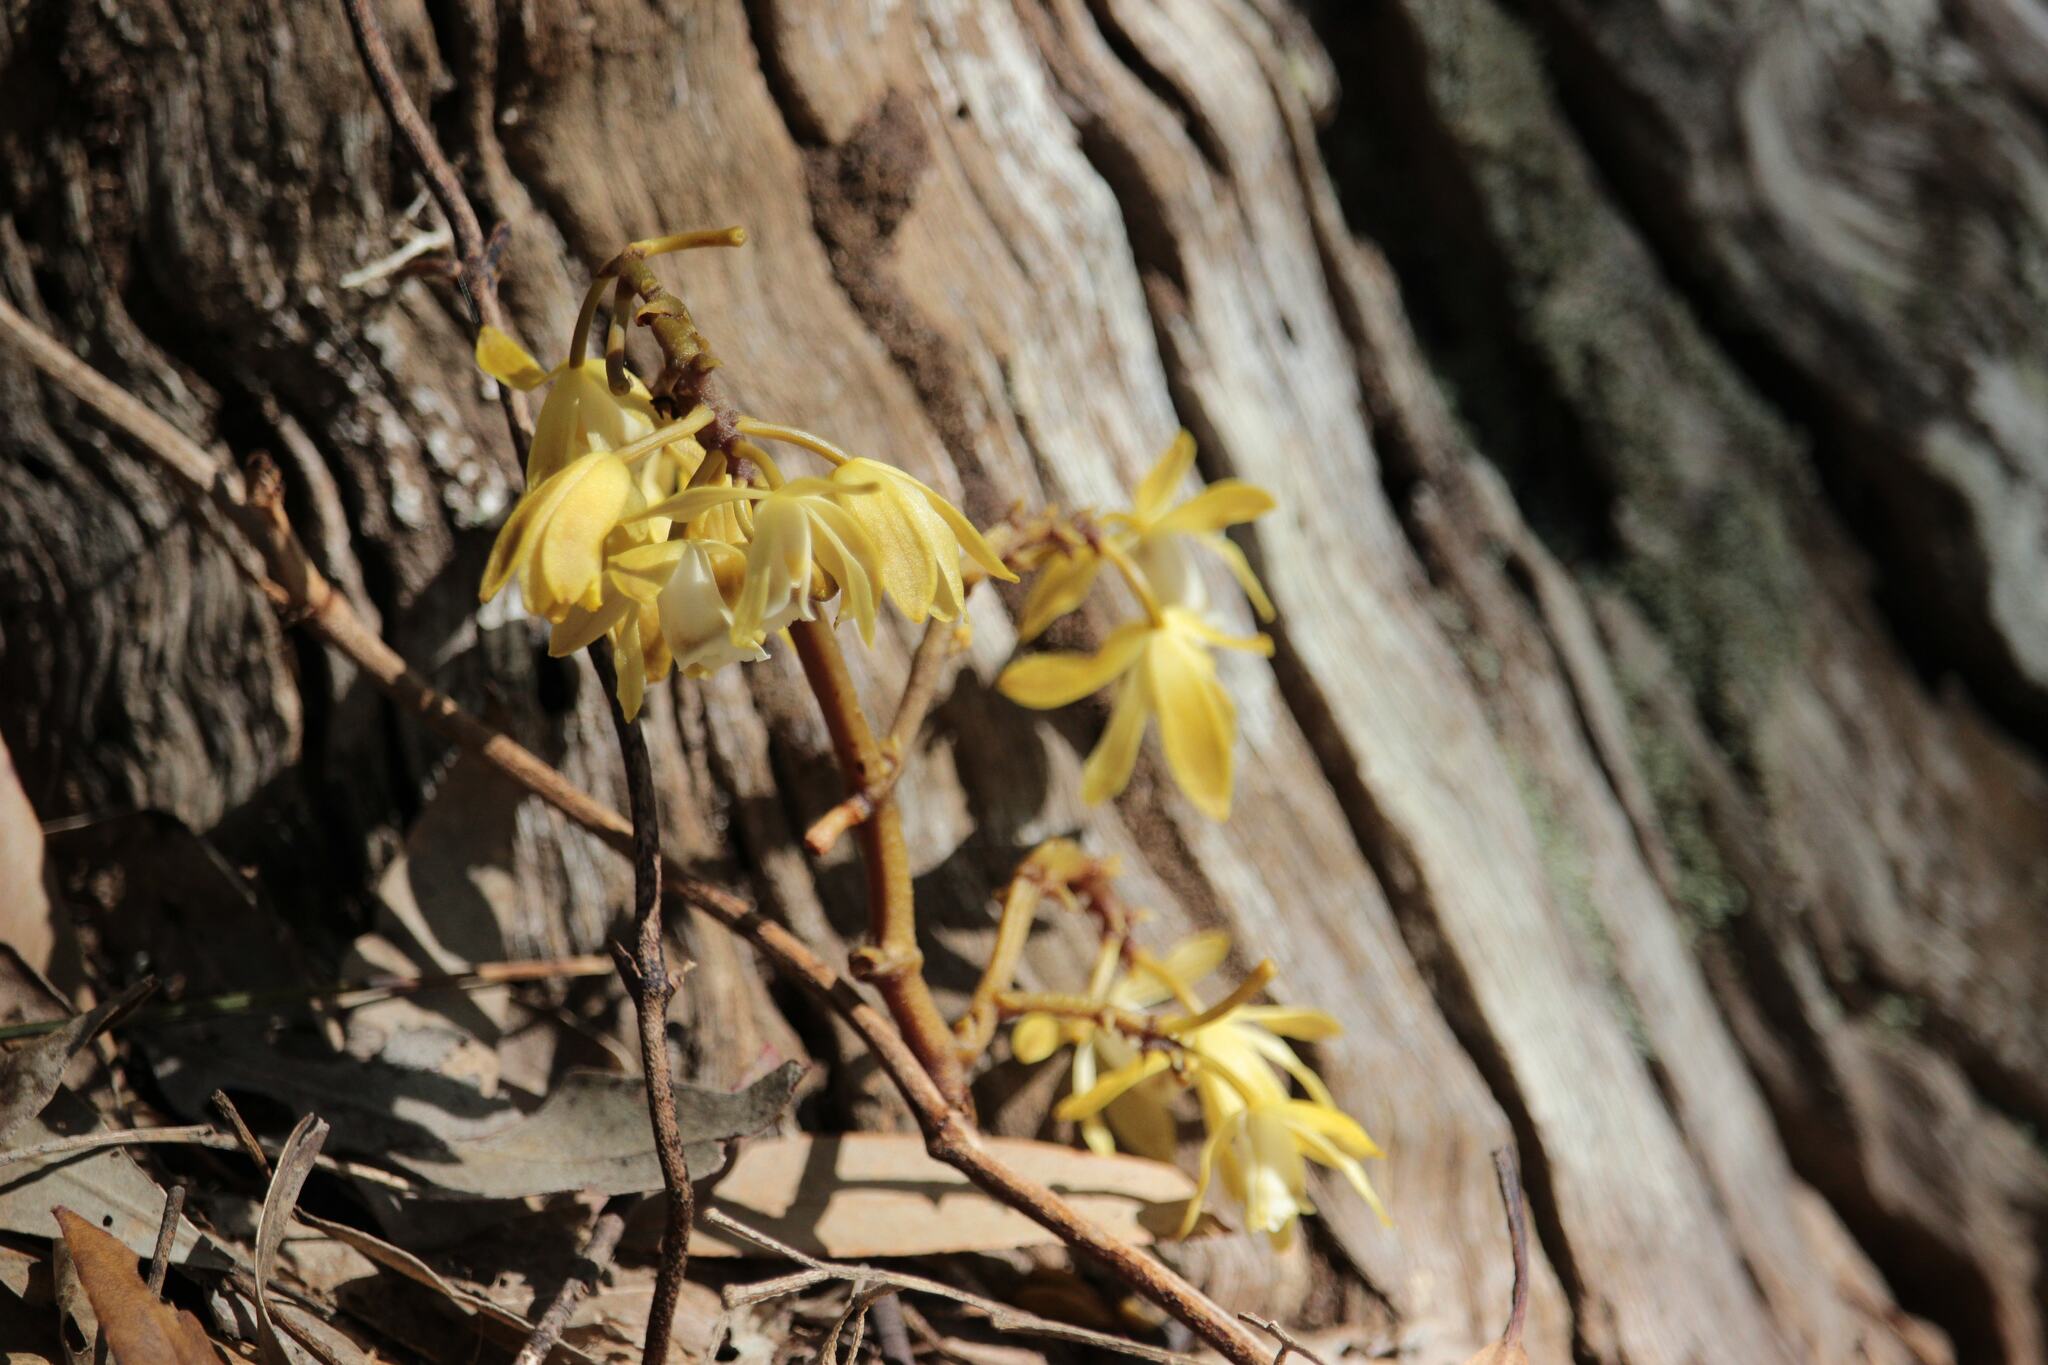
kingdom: Plantae
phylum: Tracheophyta
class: Liliopsida
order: Asparagales
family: Orchidaceae
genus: Erythrorchis
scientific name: Erythrorchis cassythoides
